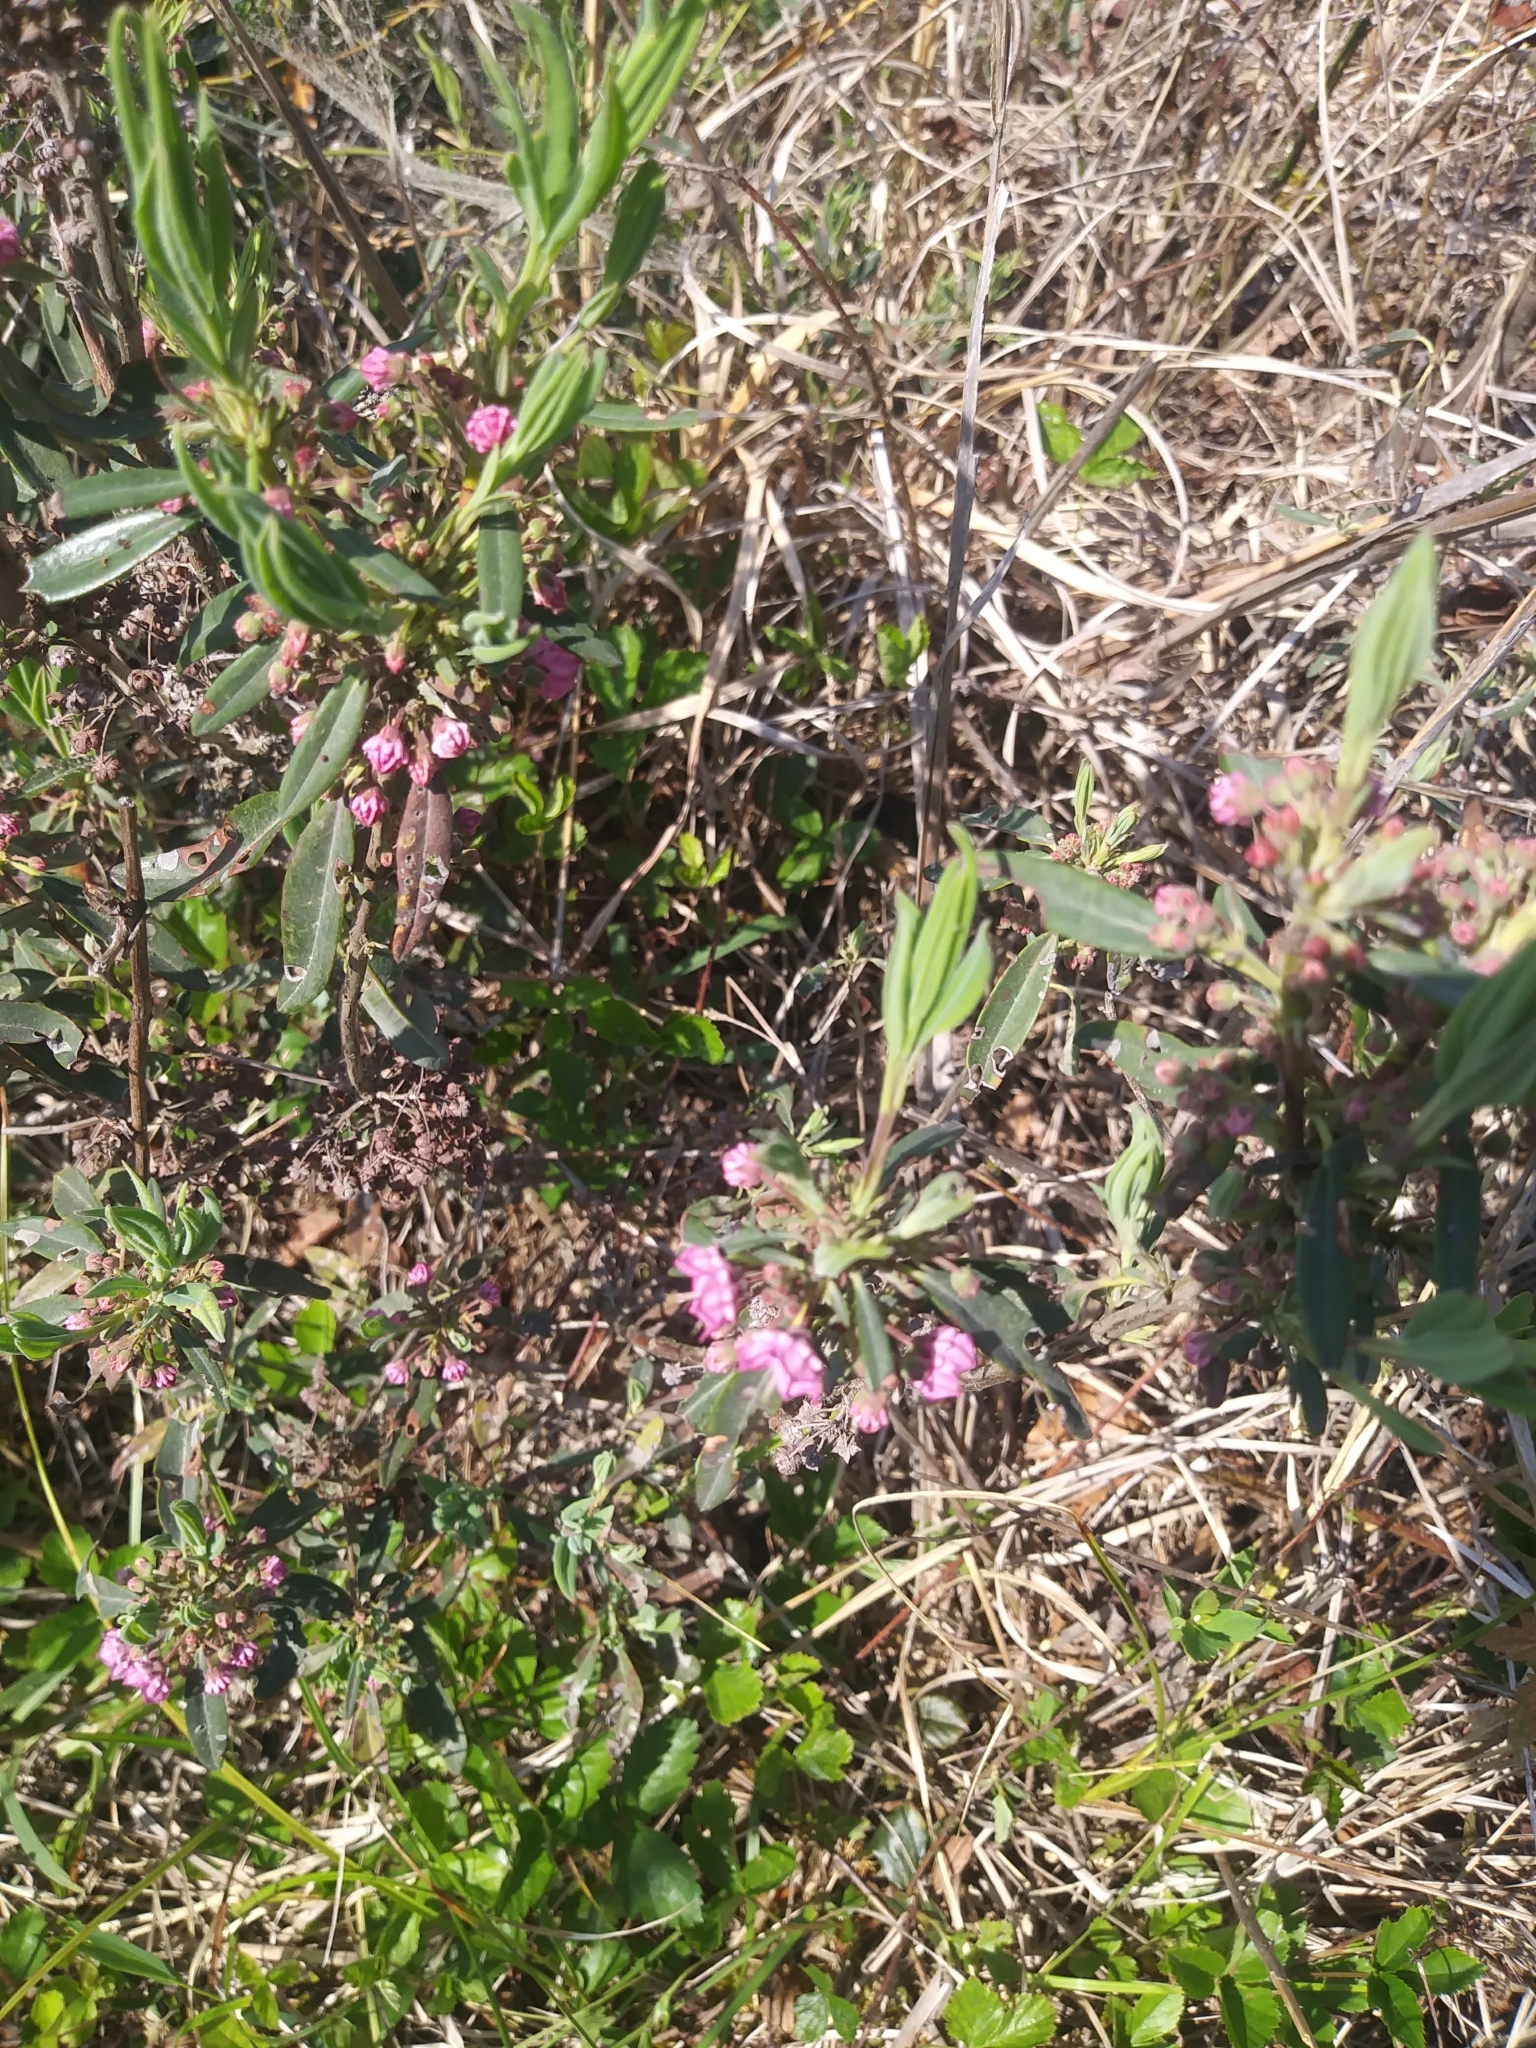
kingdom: Plantae
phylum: Tracheophyta
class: Magnoliopsida
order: Ericales
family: Ericaceae
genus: Kalmia
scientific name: Kalmia angustifolia
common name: Sheep-laurel
